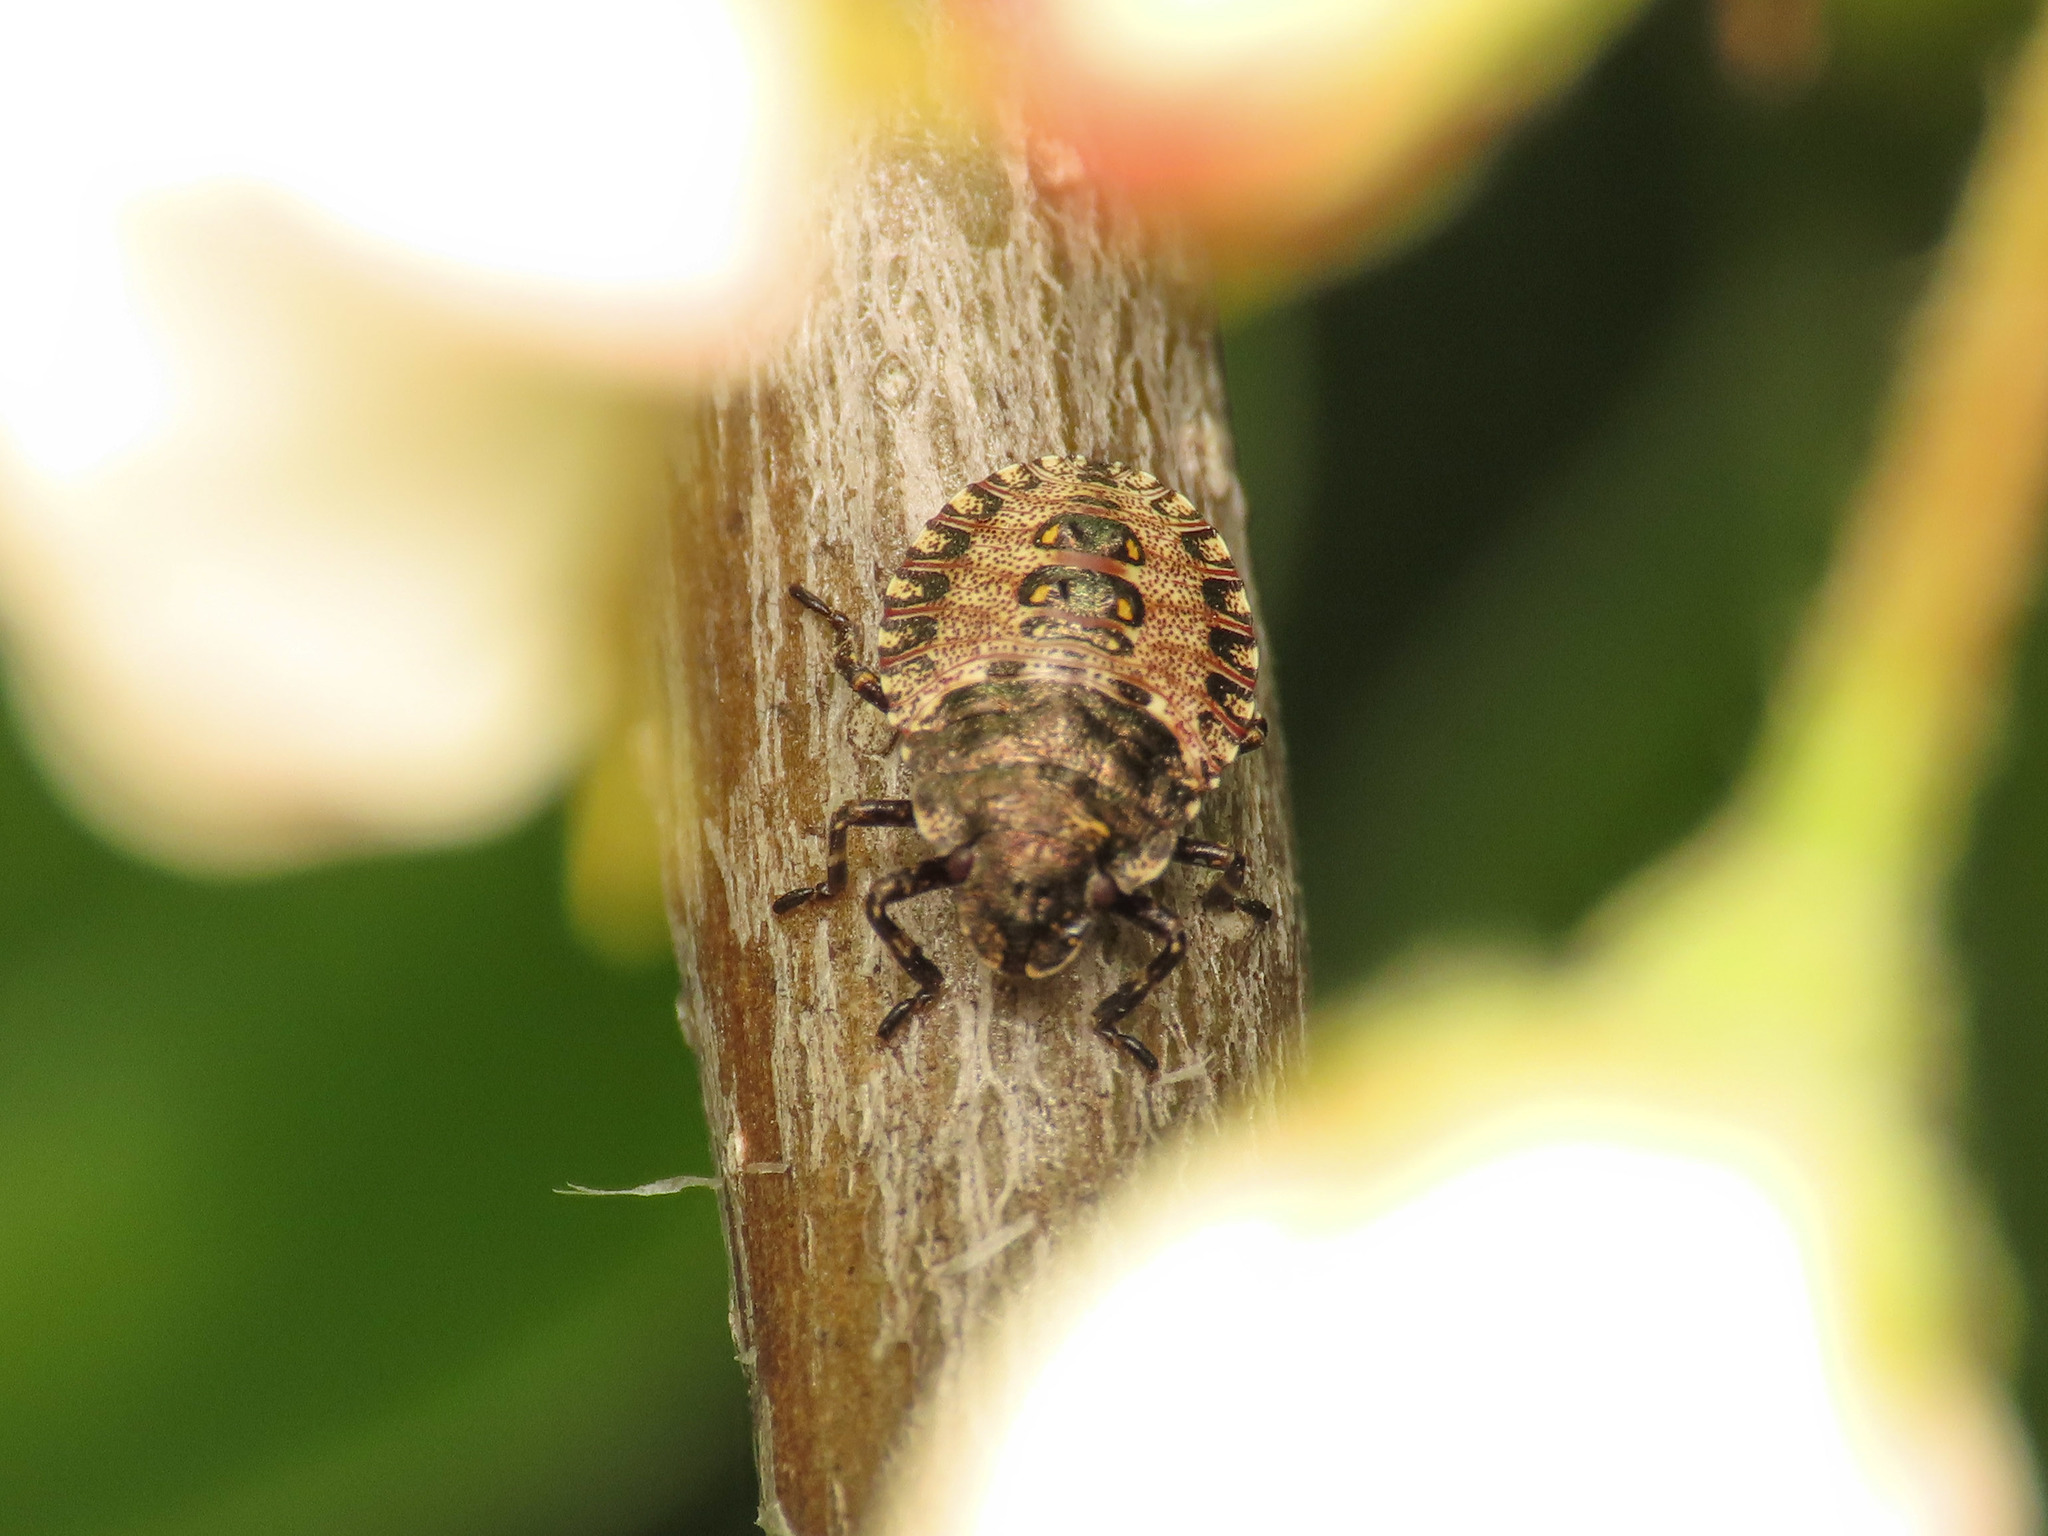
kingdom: Animalia
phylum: Arthropoda
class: Insecta
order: Hemiptera
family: Pentatomidae
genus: Pentatoma
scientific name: Pentatoma rufipes
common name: Forest bug
